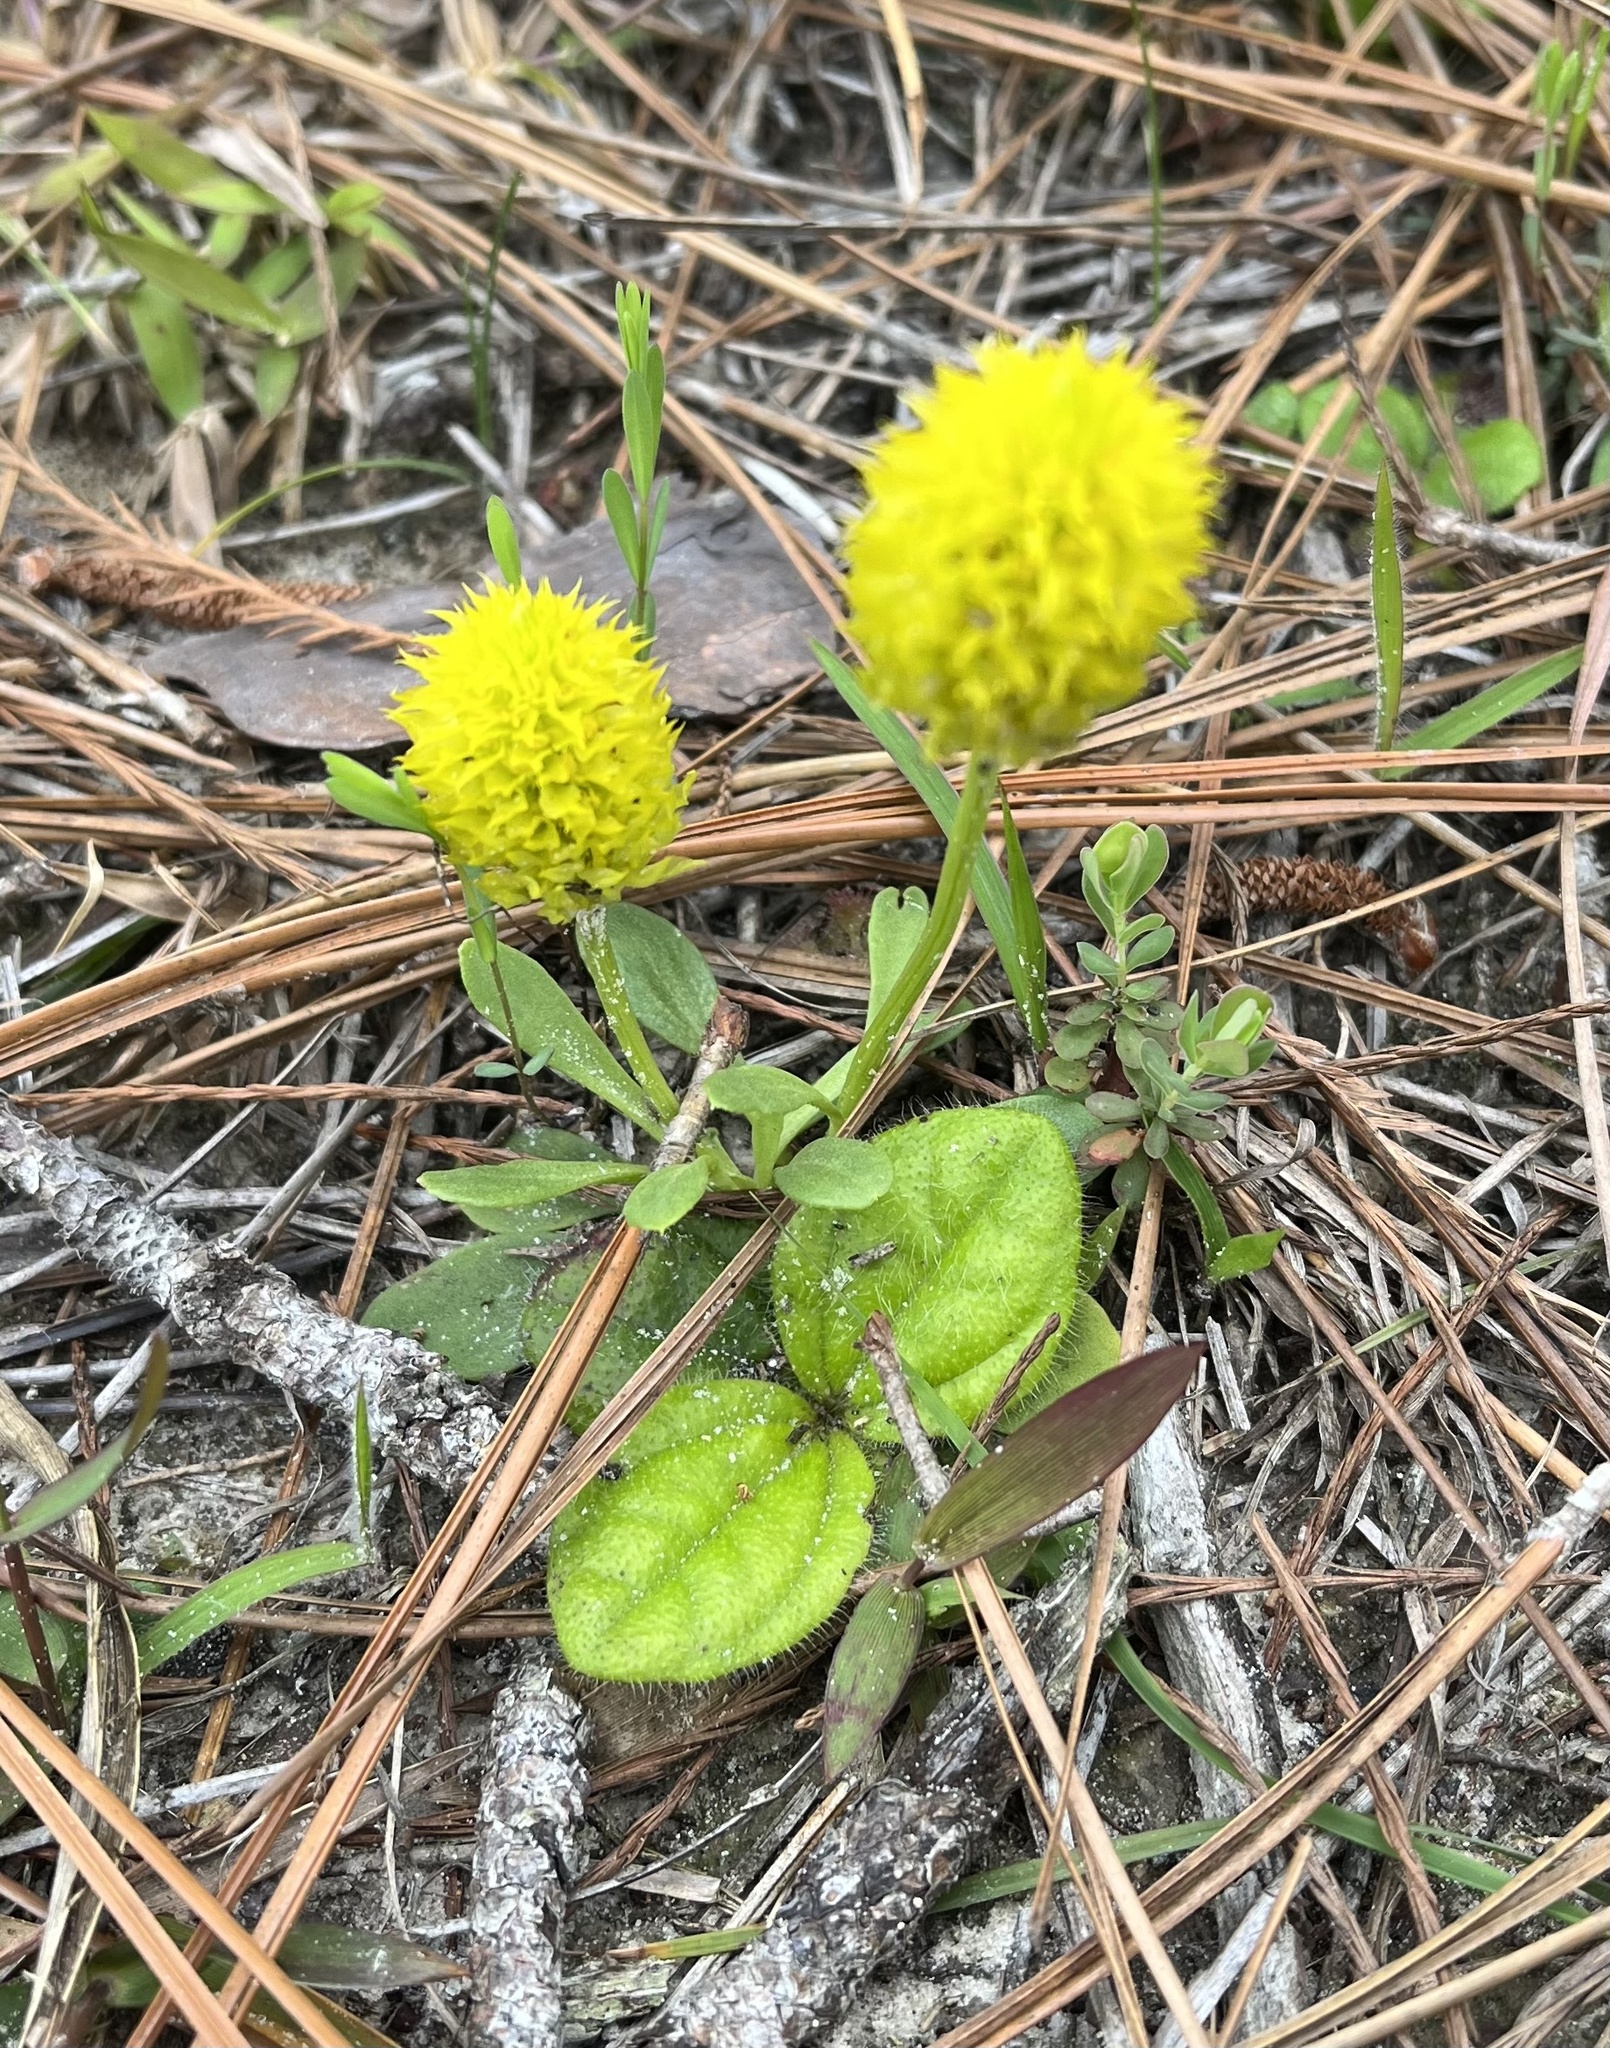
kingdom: Plantae
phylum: Tracheophyta
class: Magnoliopsida
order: Fabales
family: Polygalaceae
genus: Polygala
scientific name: Polygala nana
